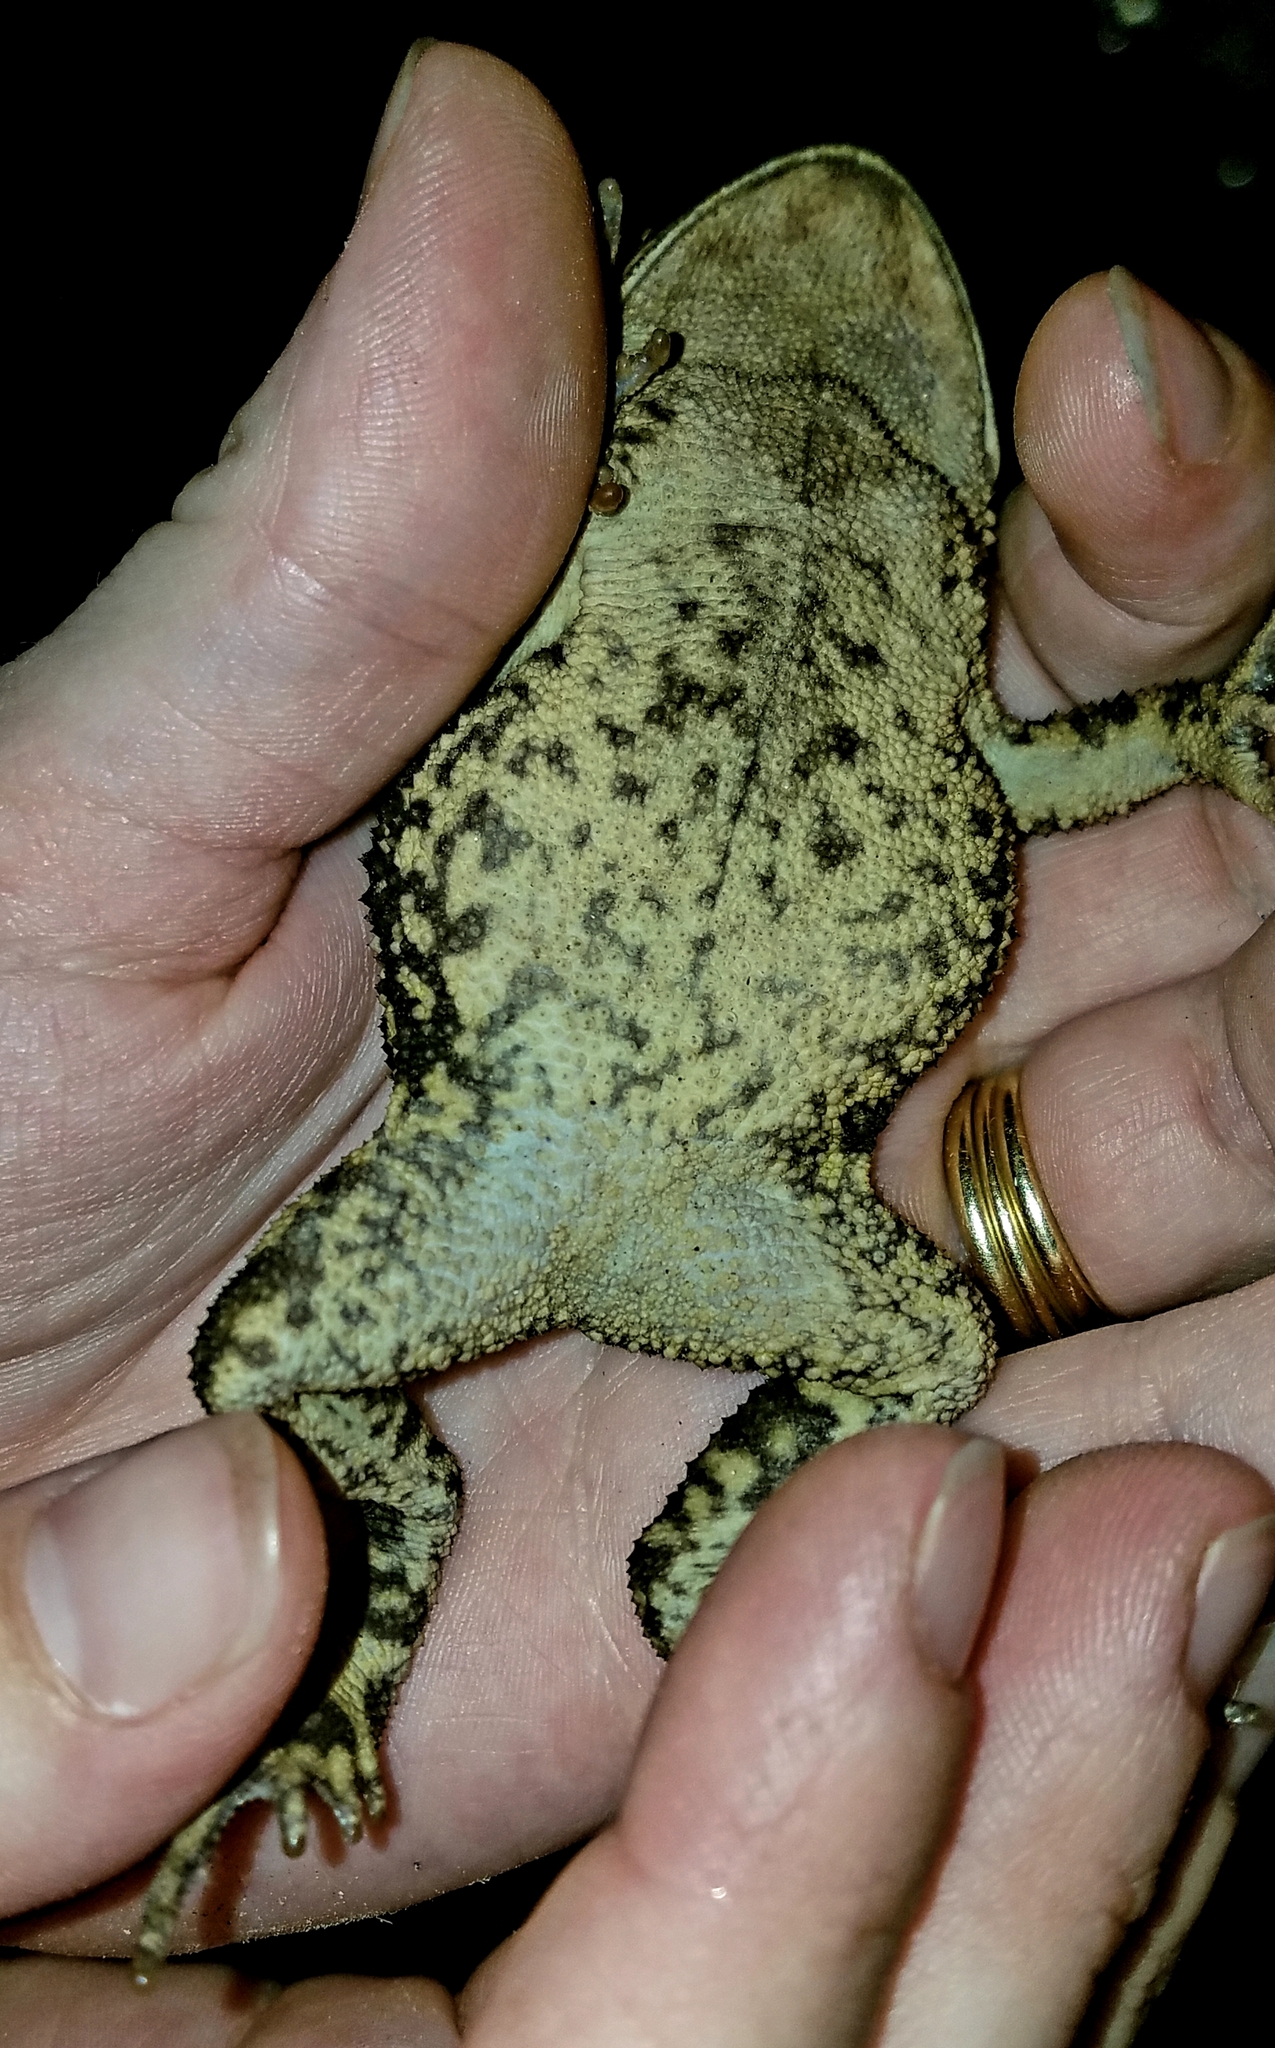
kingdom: Animalia
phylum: Chordata
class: Amphibia
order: Anura
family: Bufonidae
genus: Incilius
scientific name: Incilius nebulifer
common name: Gulf coast toad
